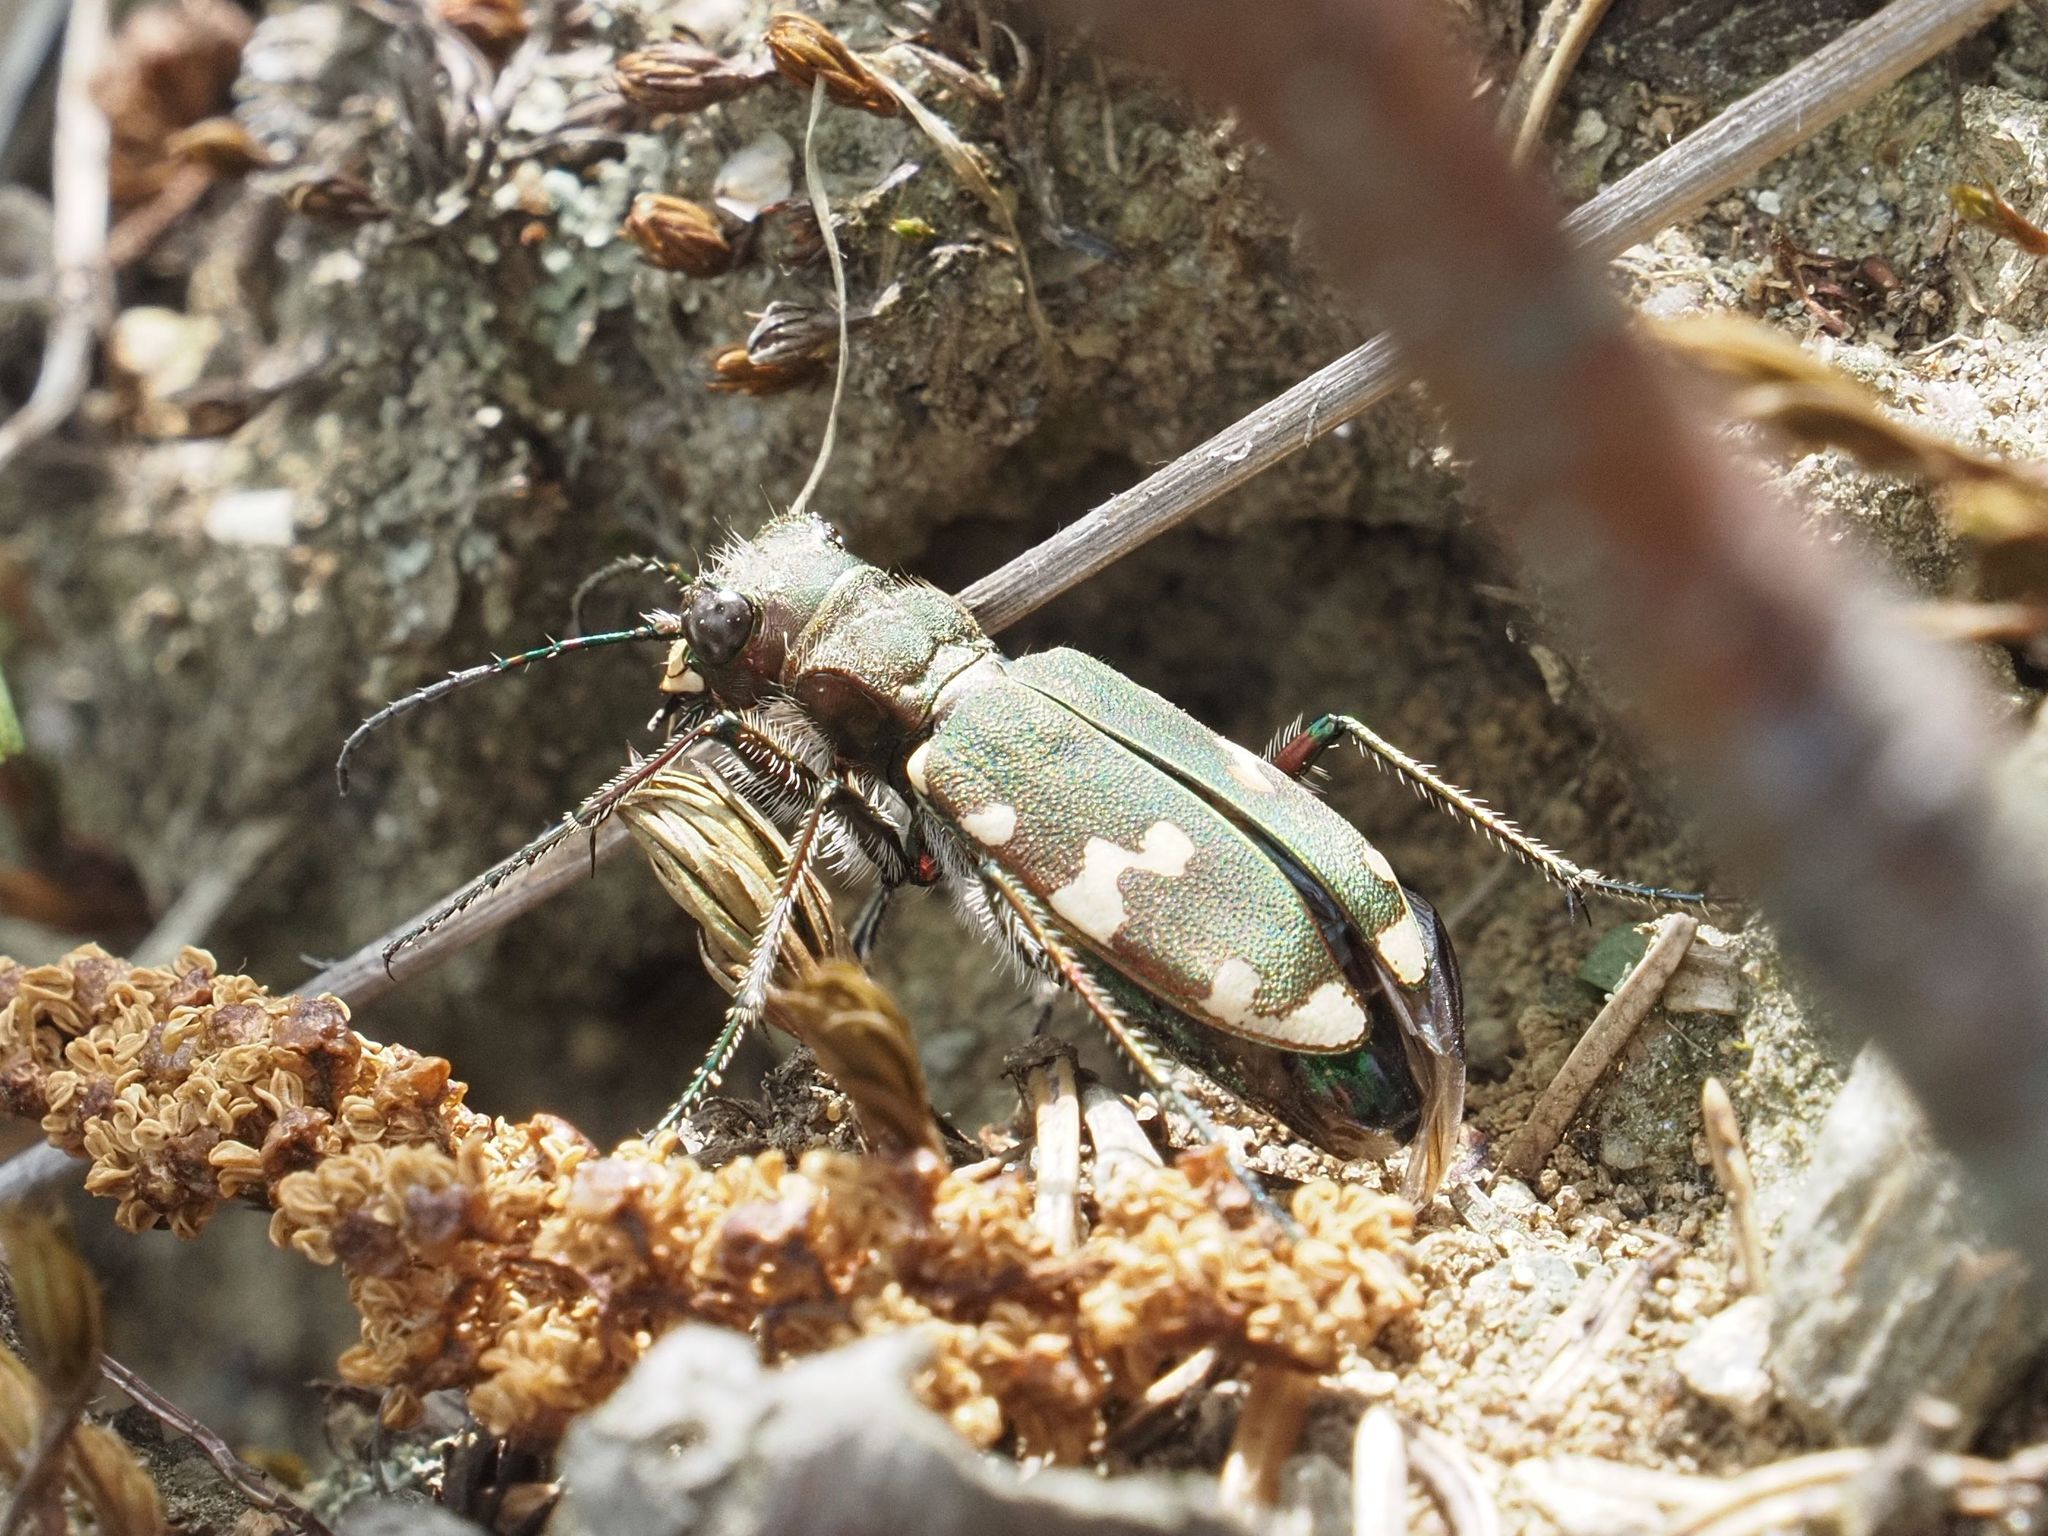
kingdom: Animalia
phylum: Arthropoda
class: Insecta
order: Coleoptera
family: Carabidae
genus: Cicindela
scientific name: Cicindela sylvicola
